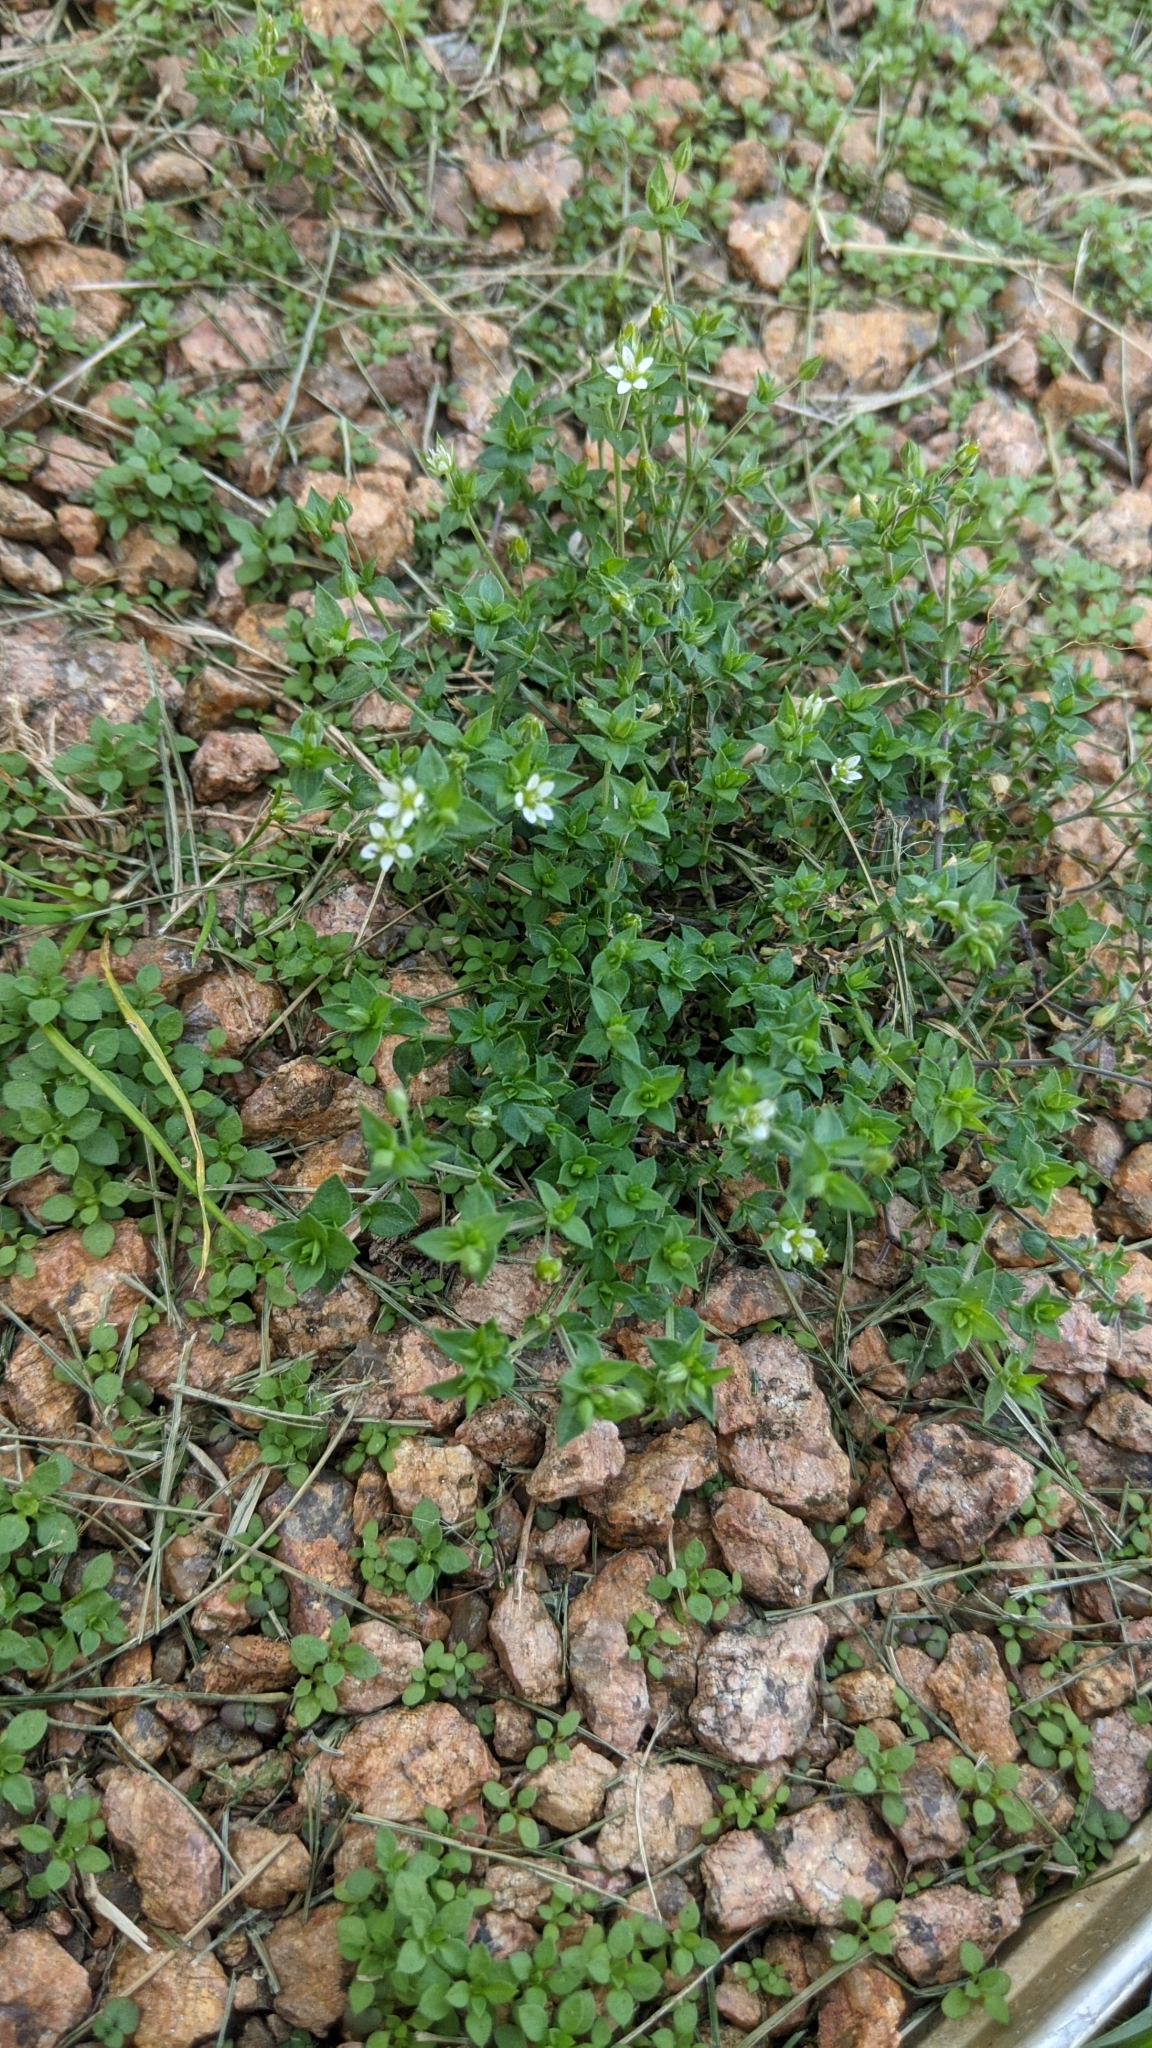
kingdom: Plantae
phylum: Tracheophyta
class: Magnoliopsida
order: Caryophyllales
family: Caryophyllaceae
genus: Arenaria
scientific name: Arenaria serpyllifolia
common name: Thyme-leaved sandwort
